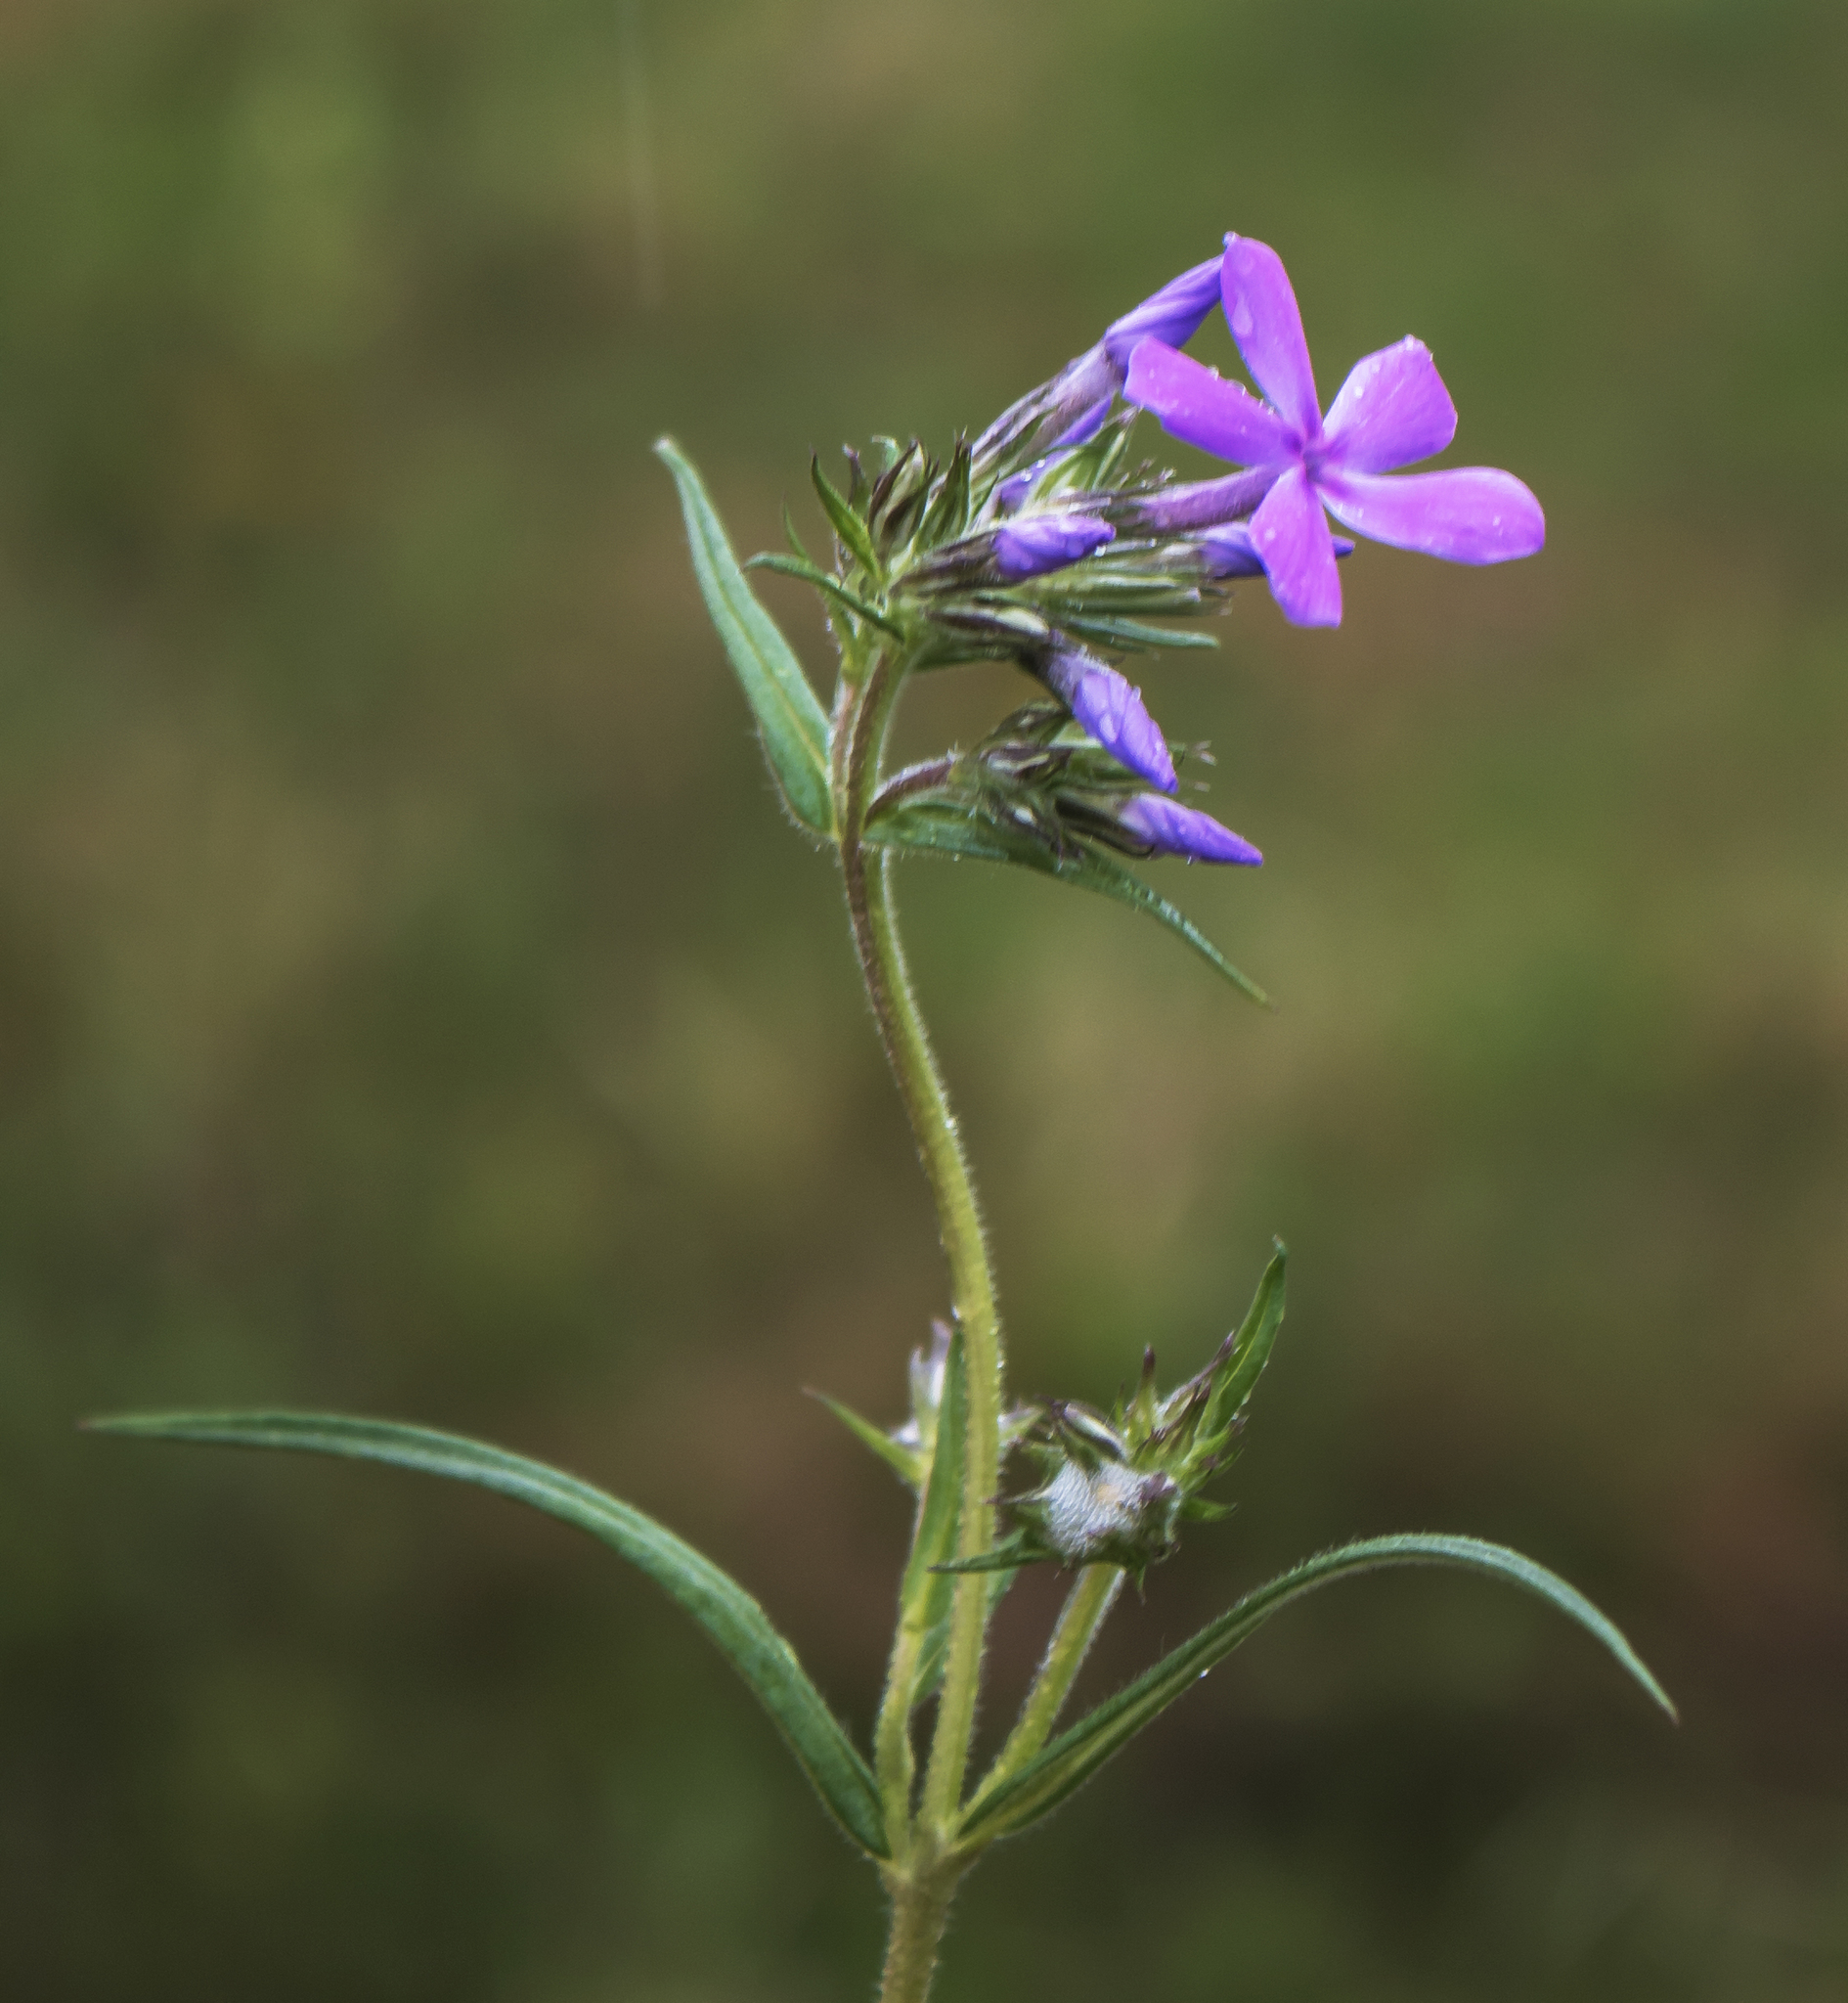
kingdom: Plantae
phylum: Tracheophyta
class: Magnoliopsida
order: Ericales
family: Polemoniaceae
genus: Phlox
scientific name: Phlox pilosa
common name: Prairie phlox
